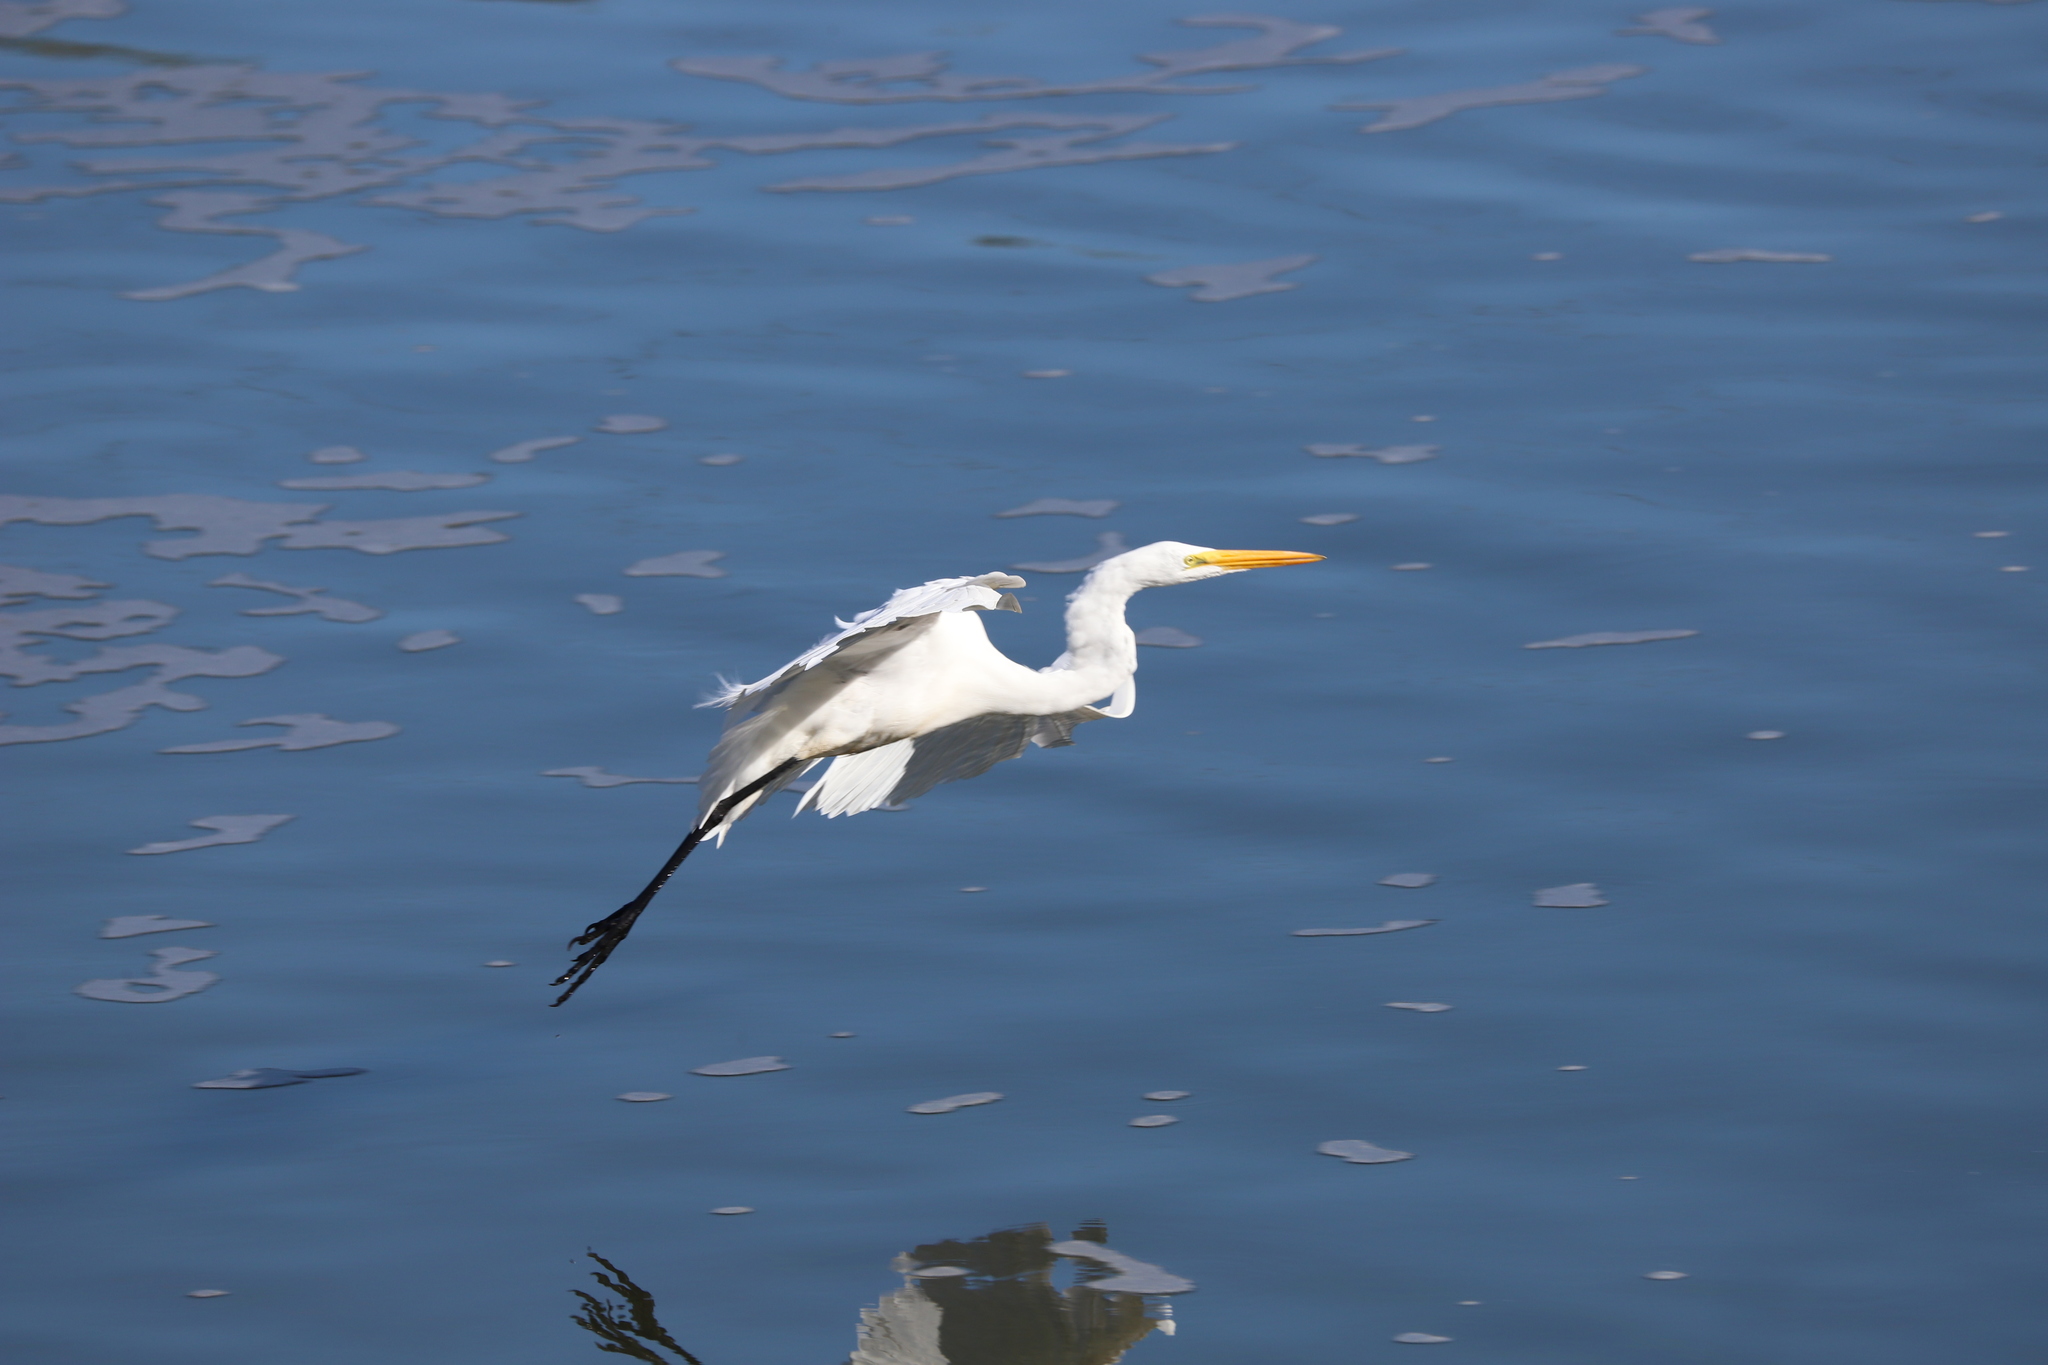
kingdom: Animalia
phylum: Chordata
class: Aves
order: Pelecaniformes
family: Ardeidae
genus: Ardea
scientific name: Ardea alba
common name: Great egret
